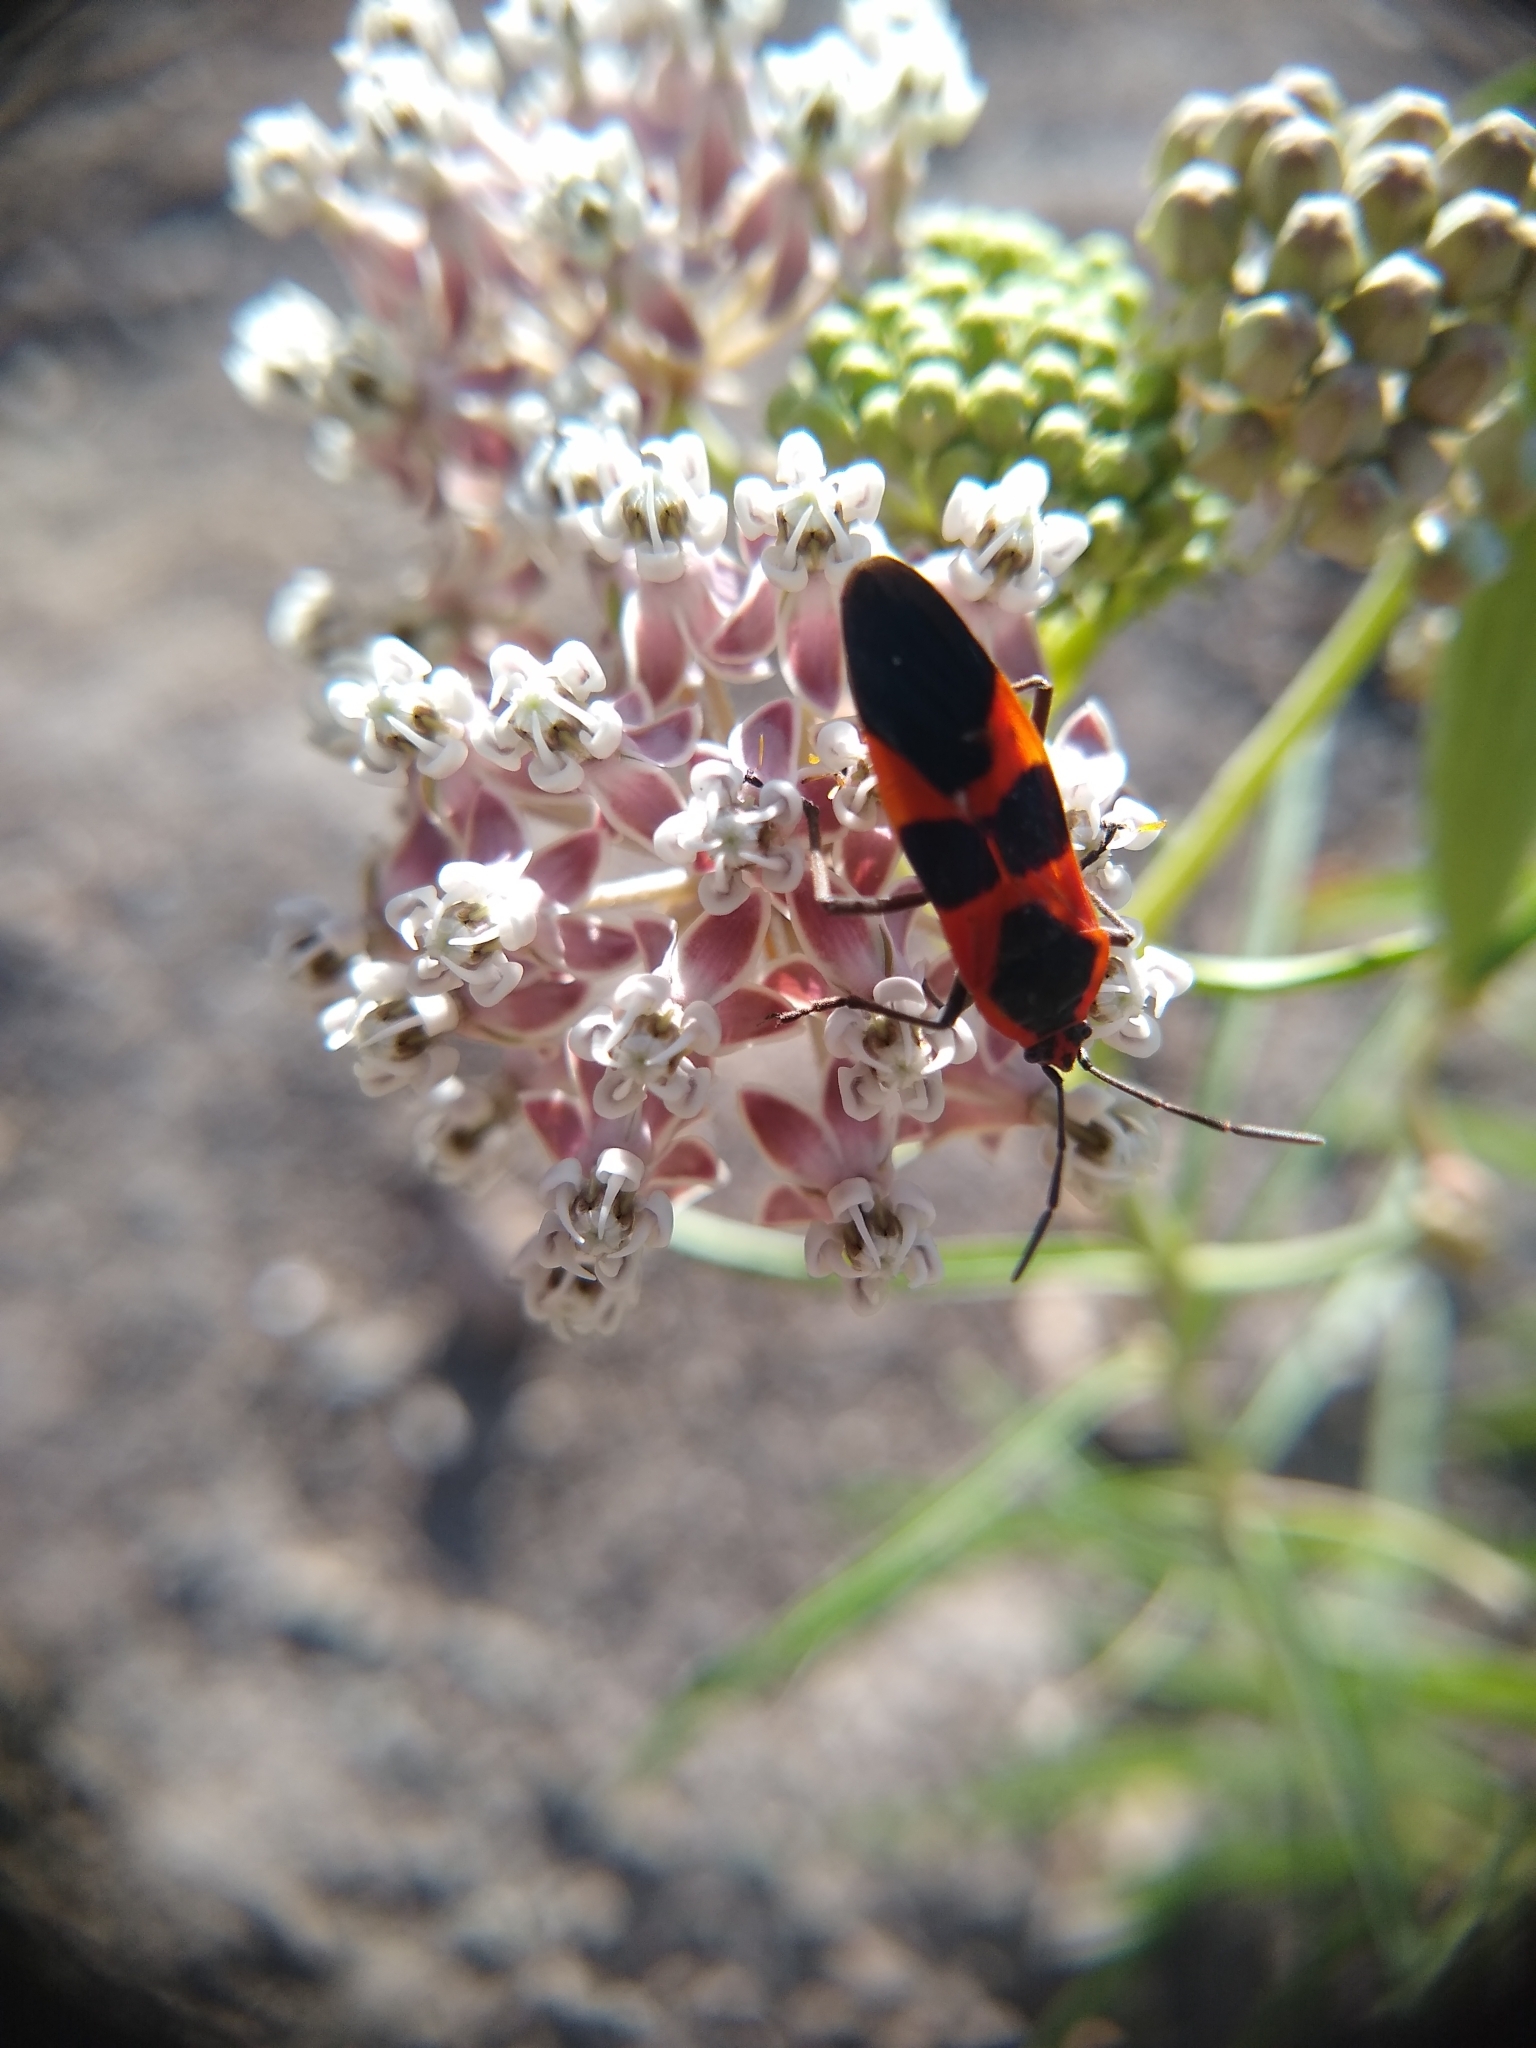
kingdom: Animalia
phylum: Arthropoda
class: Insecta
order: Hemiptera
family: Lygaeidae
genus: Oncopeltus
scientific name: Oncopeltus fasciatus
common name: Large milkweed bug
